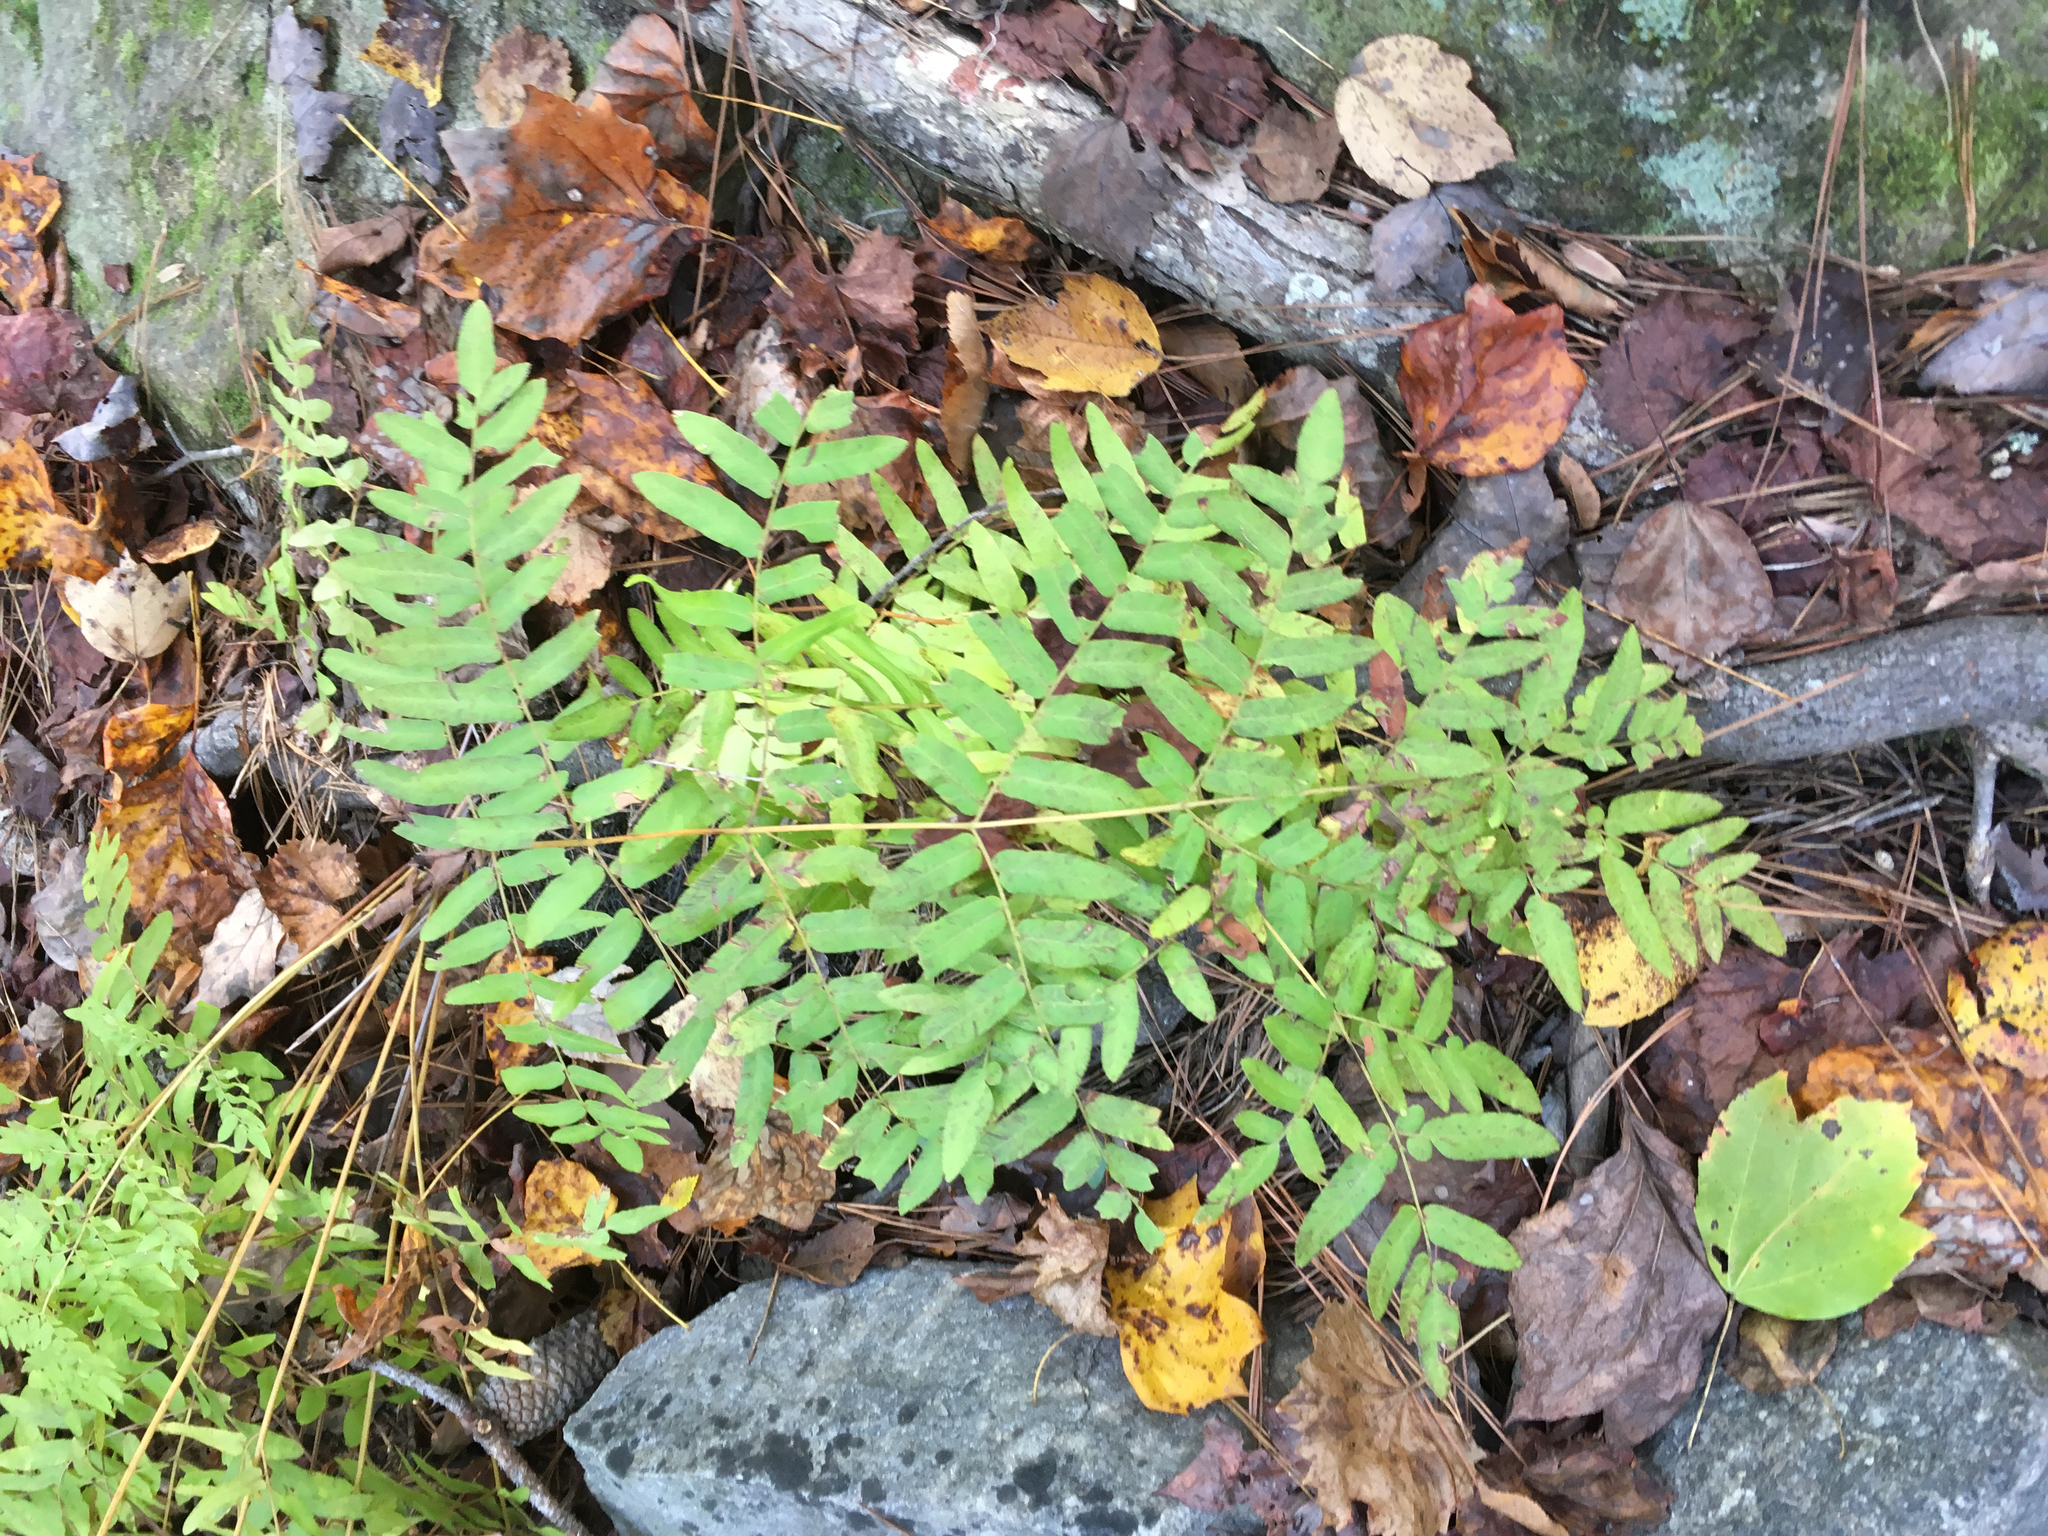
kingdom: Plantae
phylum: Tracheophyta
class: Polypodiopsida
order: Osmundales
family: Osmundaceae
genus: Osmunda
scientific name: Osmunda spectabilis
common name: American royal fern
